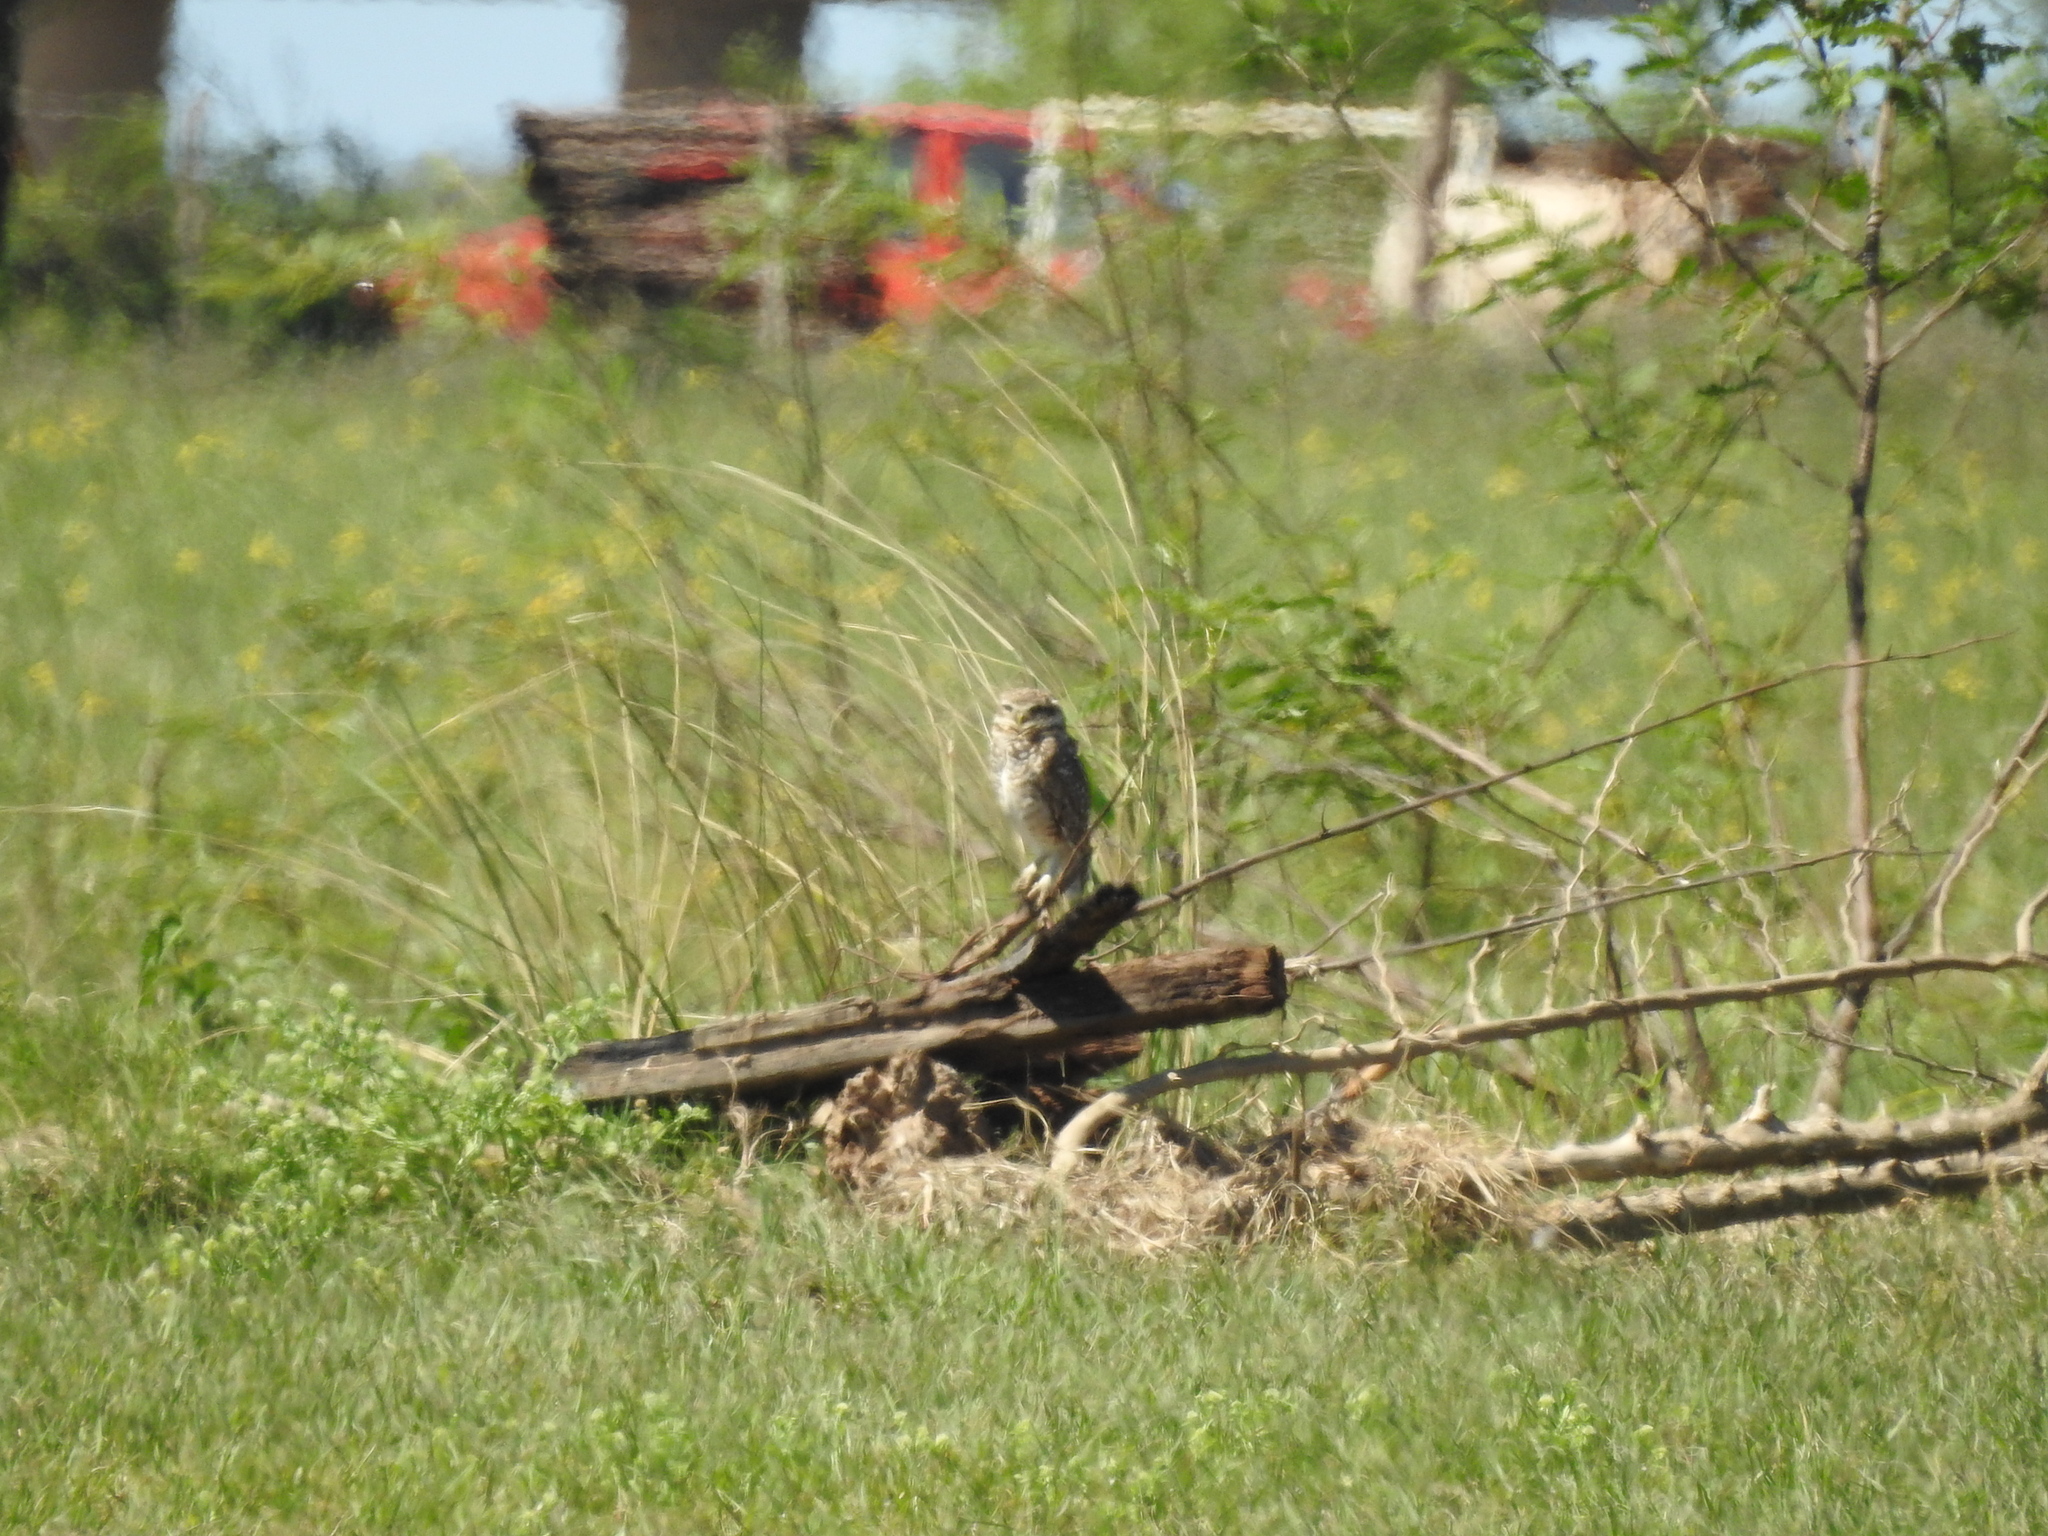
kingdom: Animalia
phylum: Chordata
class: Aves
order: Strigiformes
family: Strigidae
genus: Athene
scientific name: Athene cunicularia
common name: Burrowing owl
